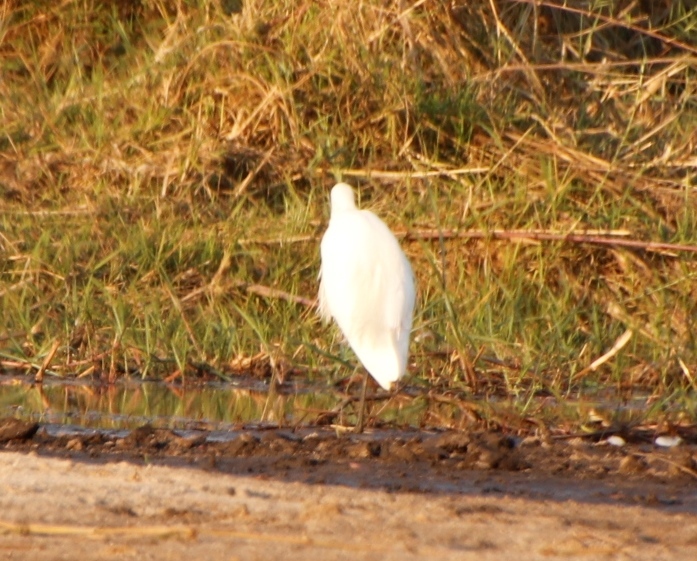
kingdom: Animalia
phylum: Chordata
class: Aves
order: Pelecaniformes
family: Ardeidae
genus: Egretta
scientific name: Egretta garzetta
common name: Little egret
